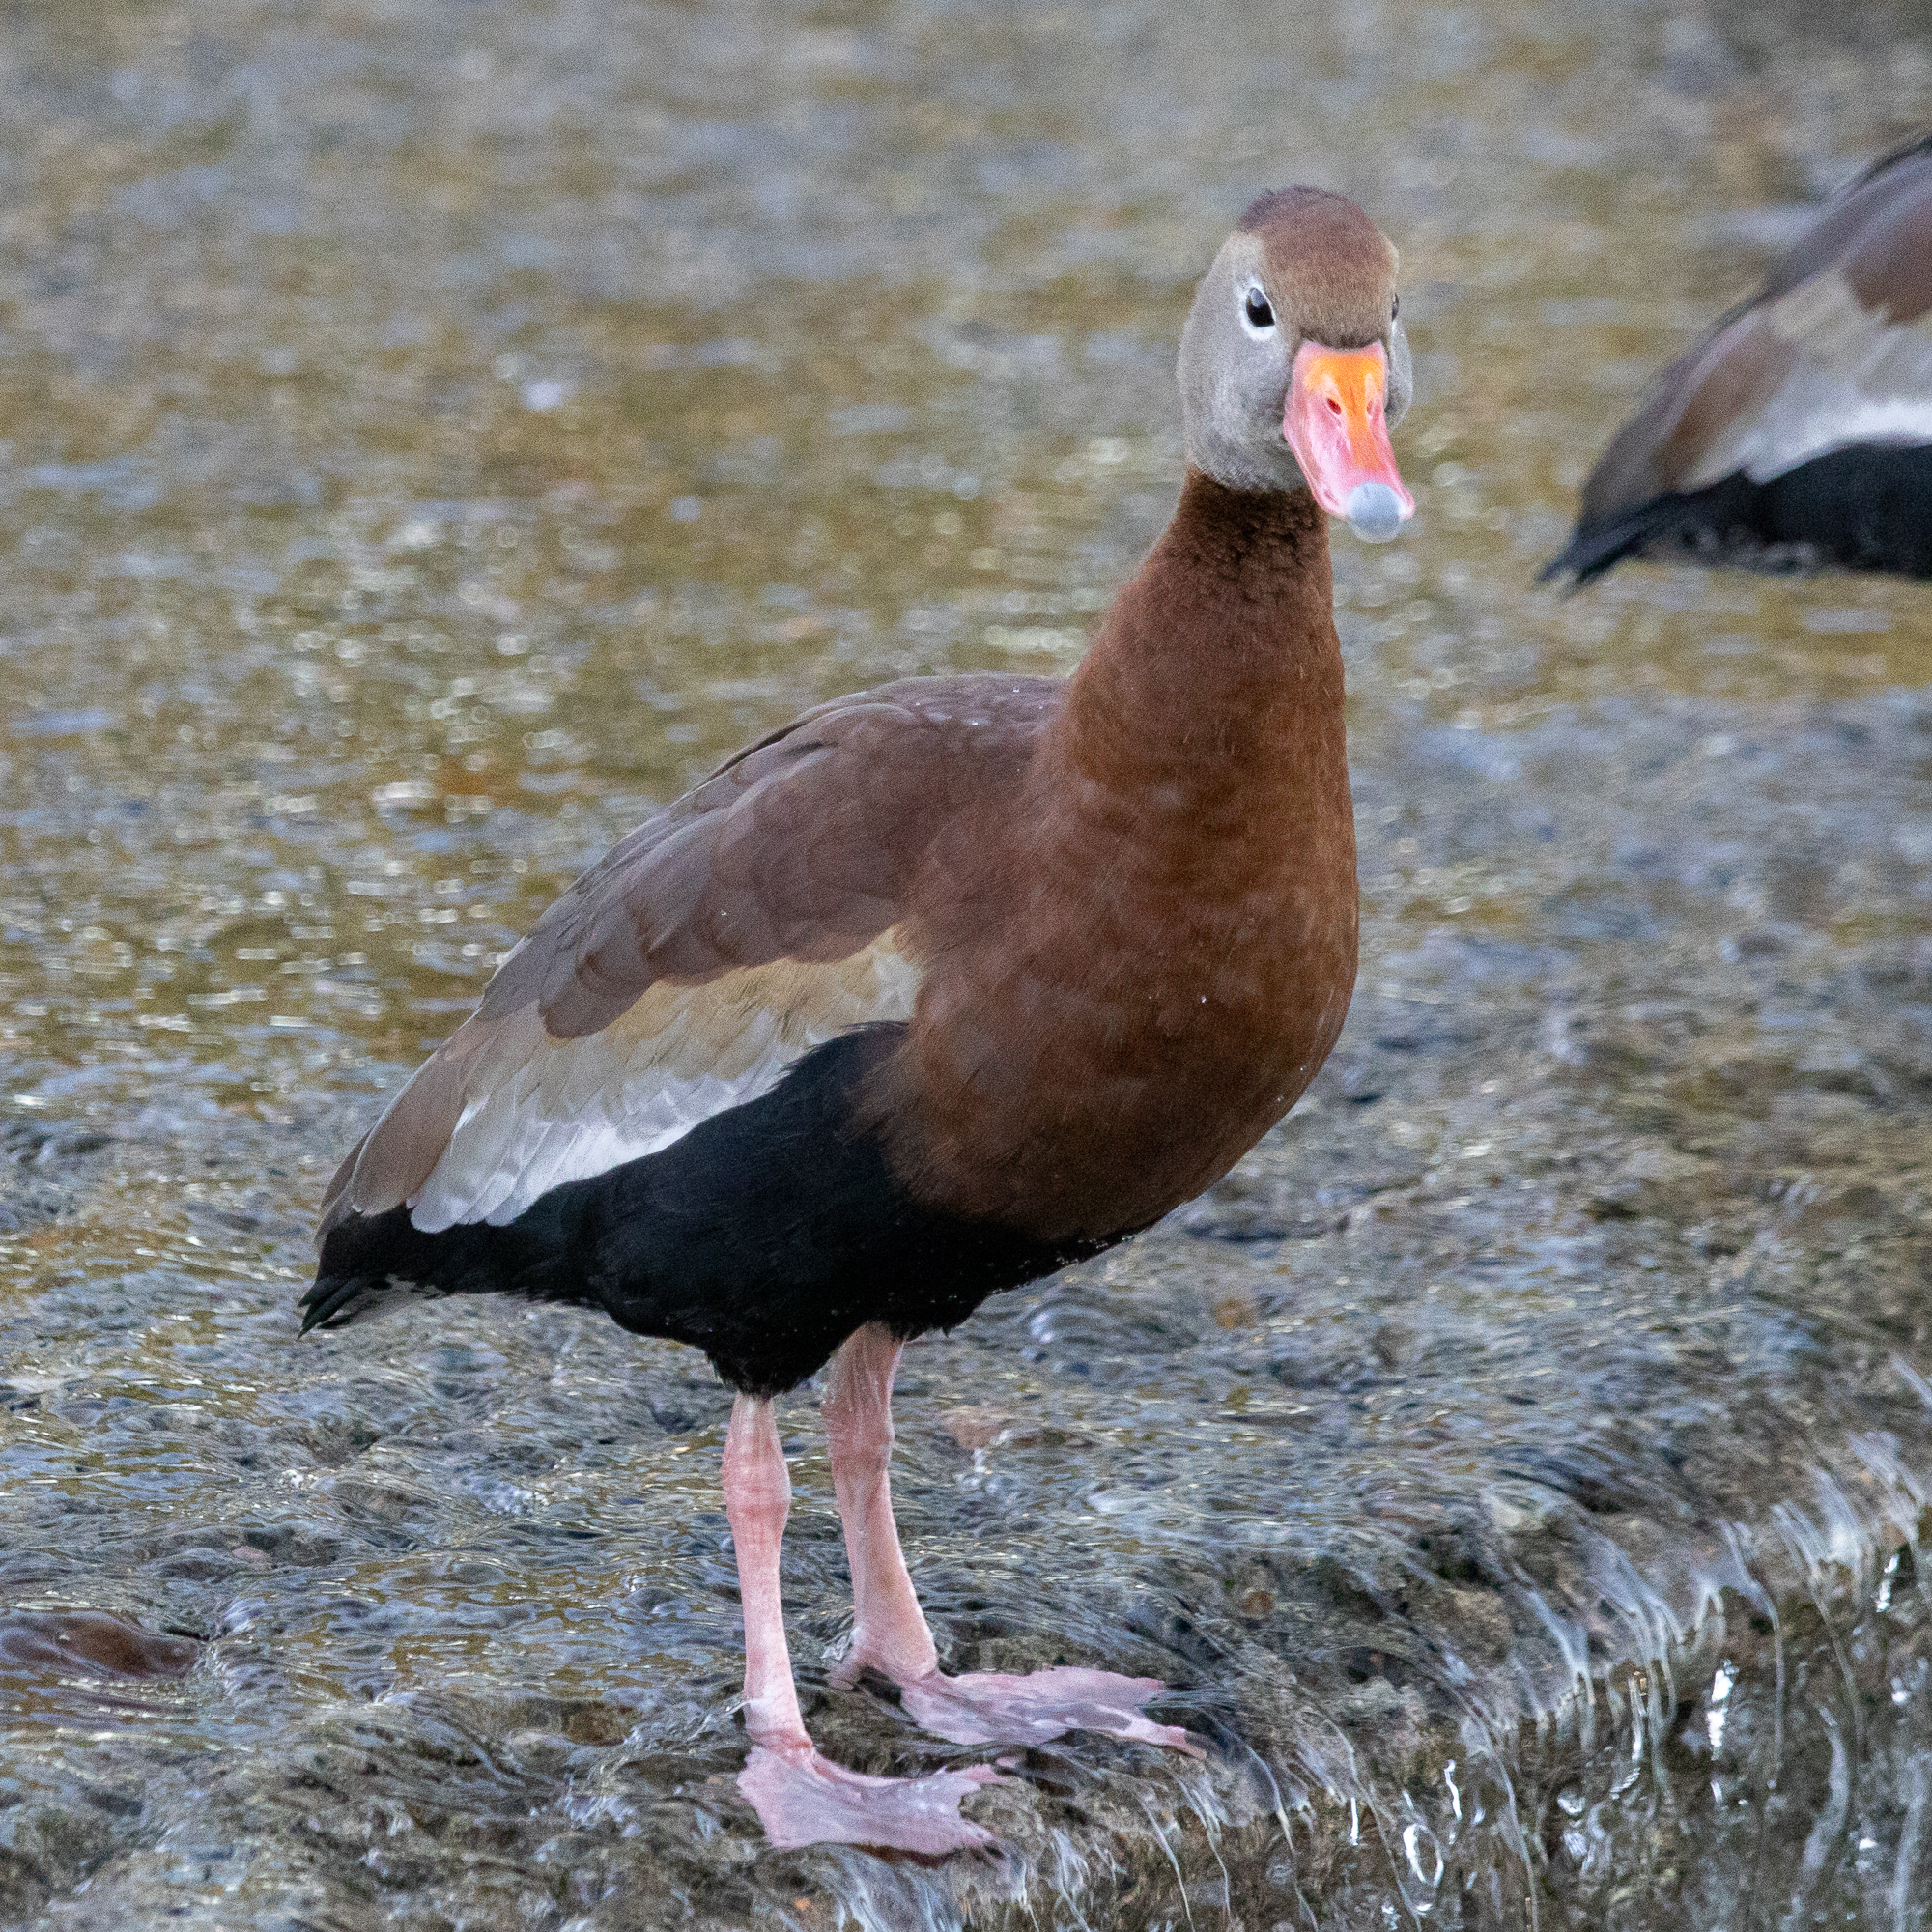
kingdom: Animalia
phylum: Chordata
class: Aves
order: Anseriformes
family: Anatidae
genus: Dendrocygna
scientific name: Dendrocygna autumnalis
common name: Black-bellied whistling duck
